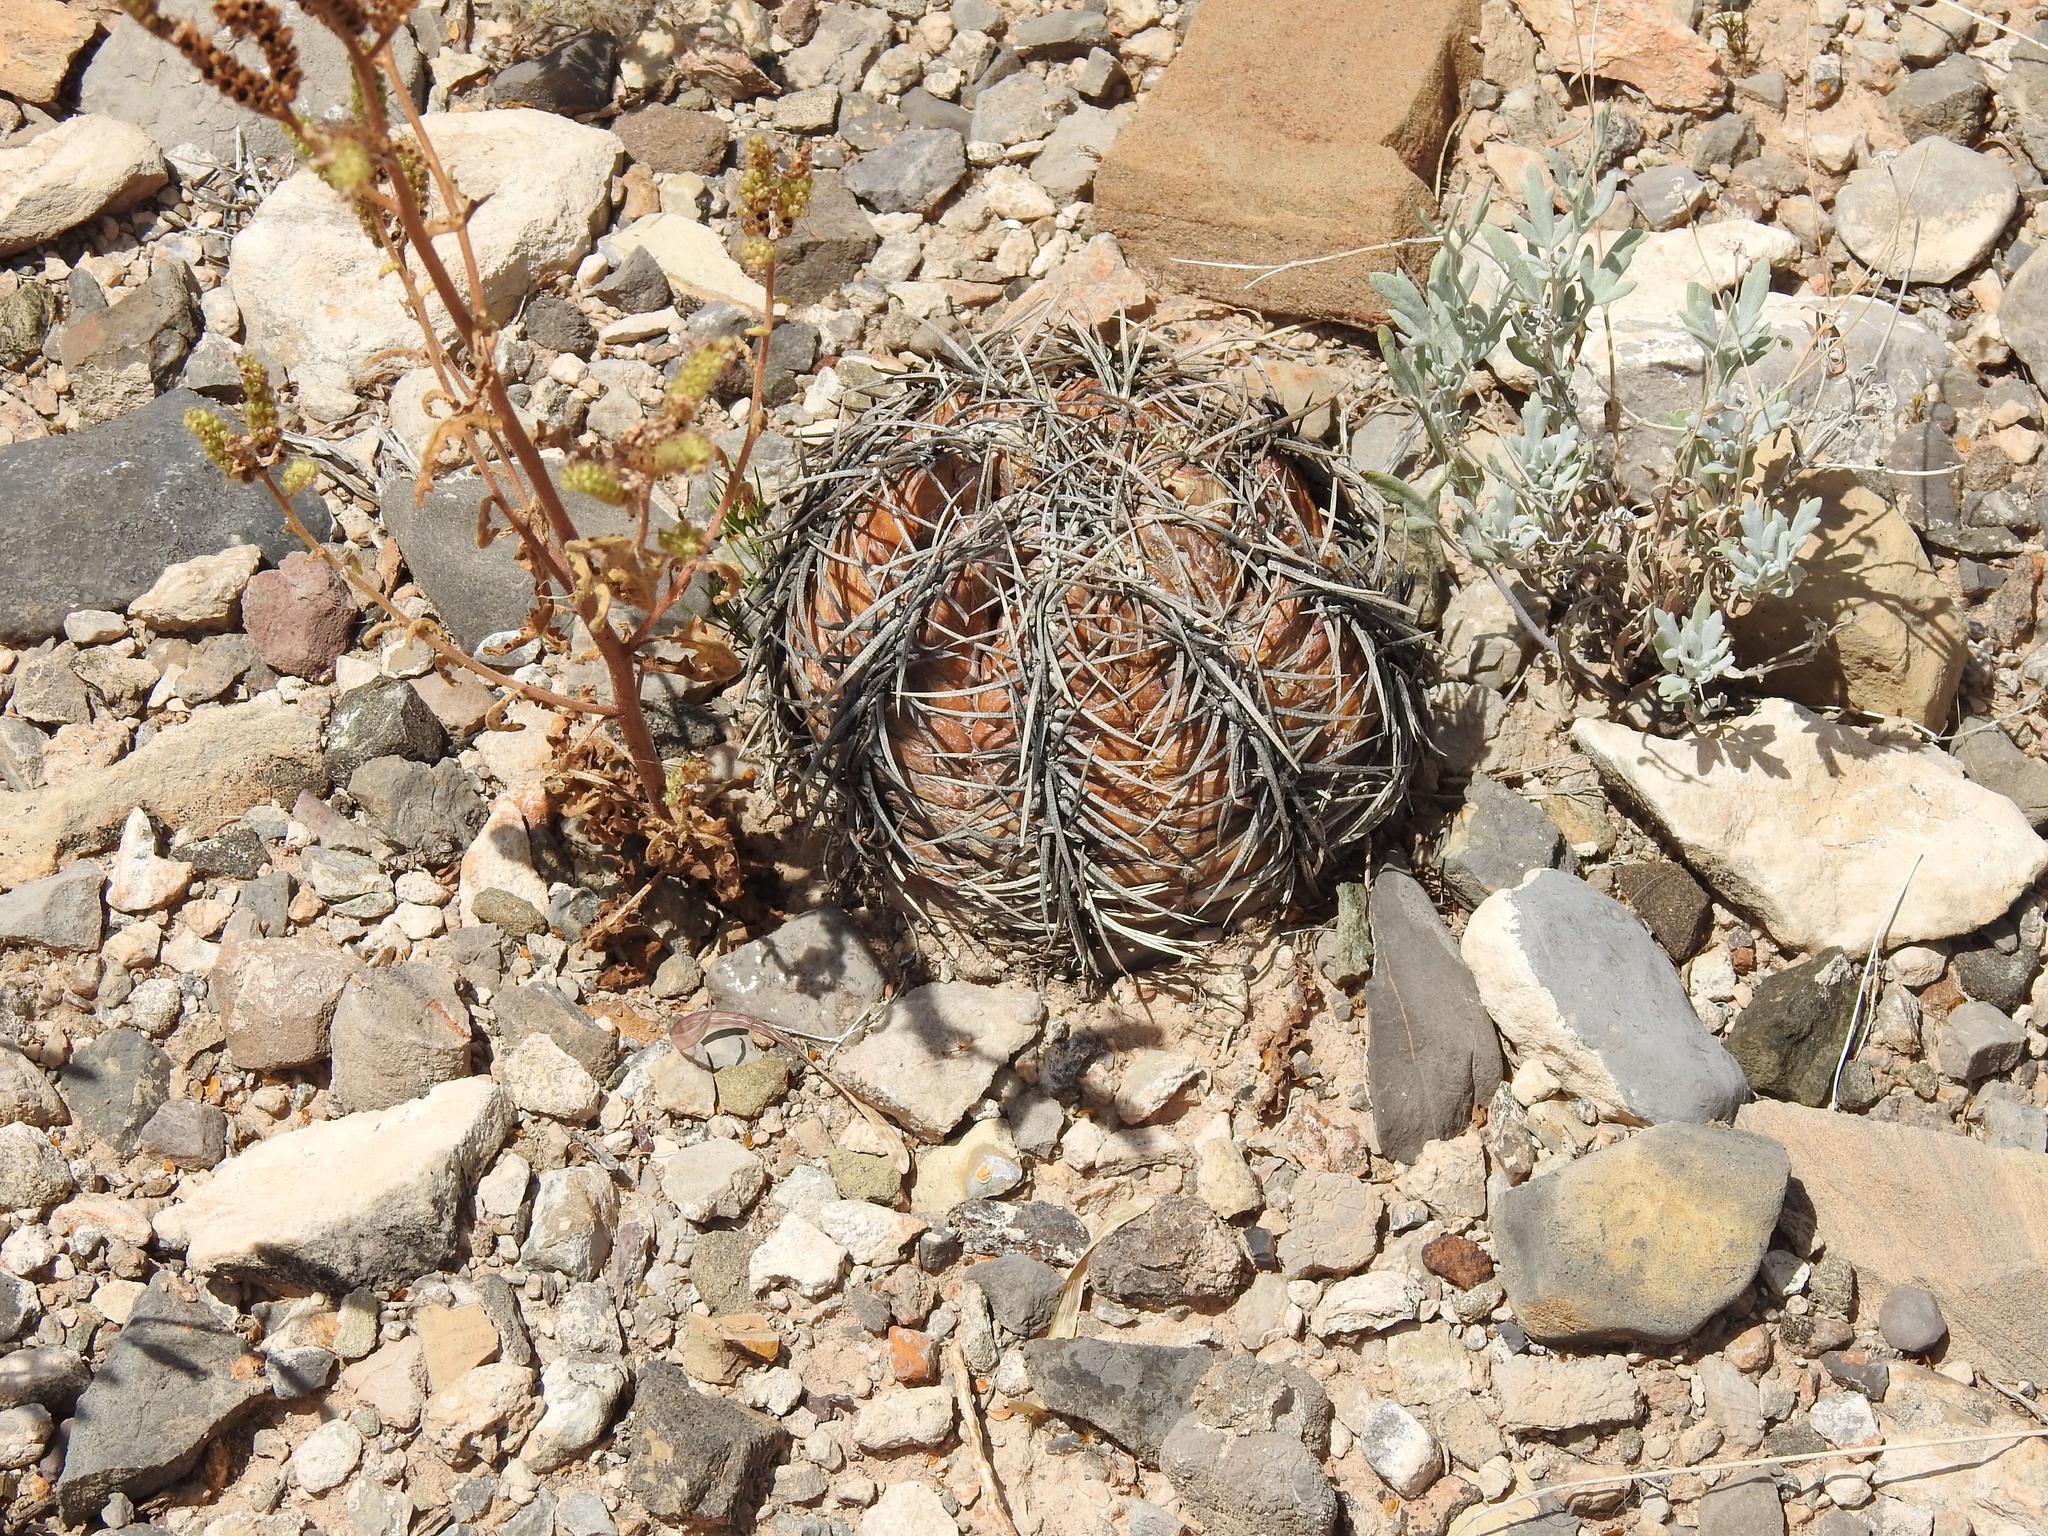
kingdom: Plantae
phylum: Tracheophyta
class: Magnoliopsida
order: Caryophyllales
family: Cactaceae
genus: Echinocactus
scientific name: Echinocactus horizonthalonius
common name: Devilshead
